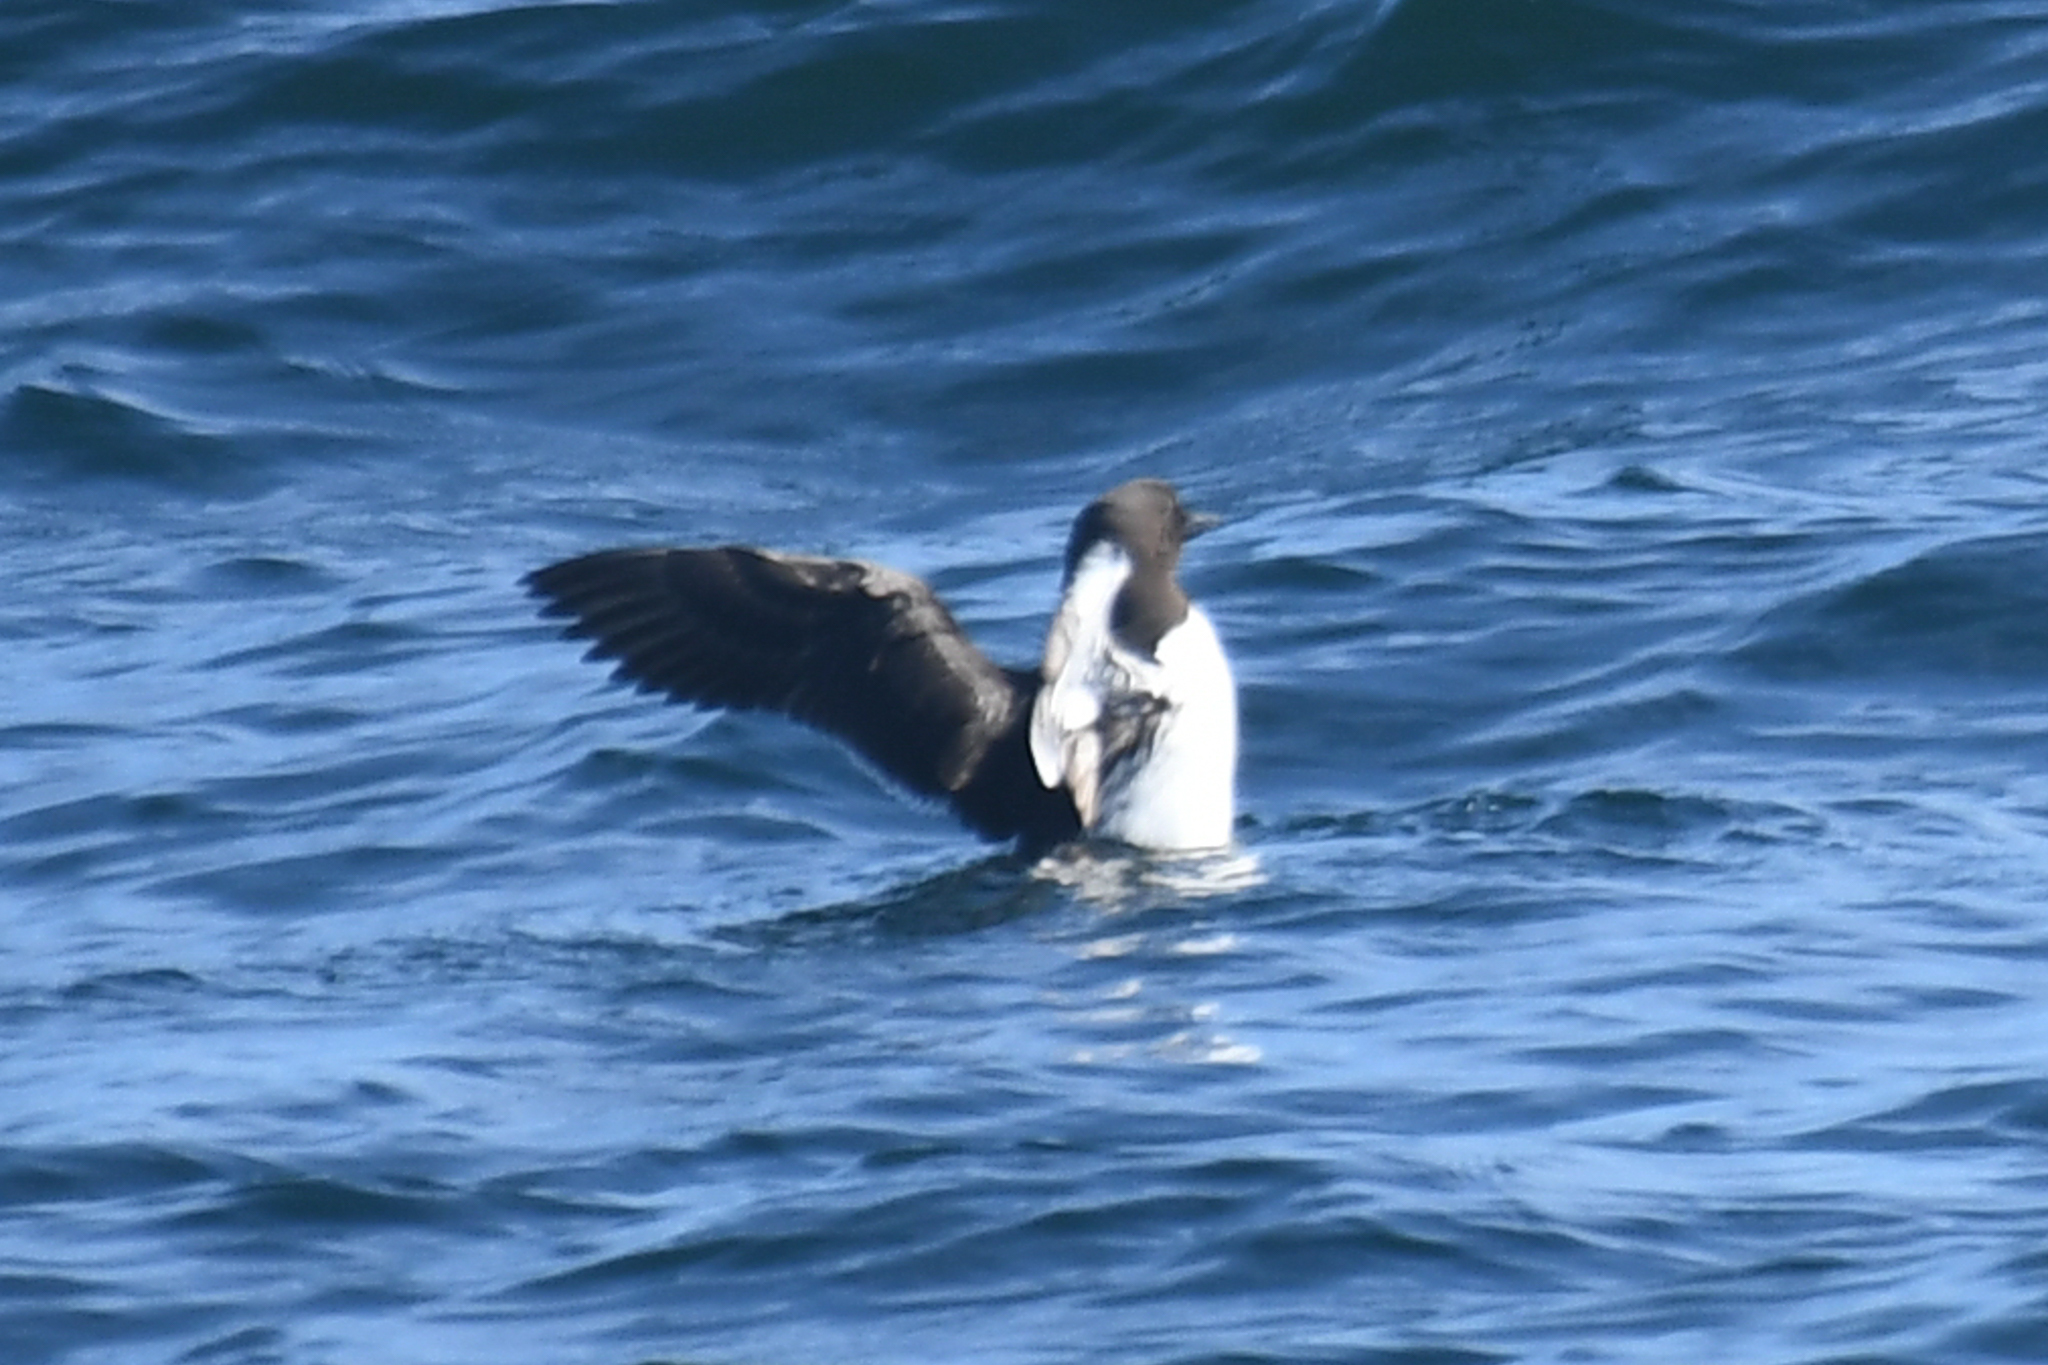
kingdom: Animalia
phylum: Chordata
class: Aves
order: Charadriiformes
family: Alcidae
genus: Uria
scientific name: Uria aalge
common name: Common murre
